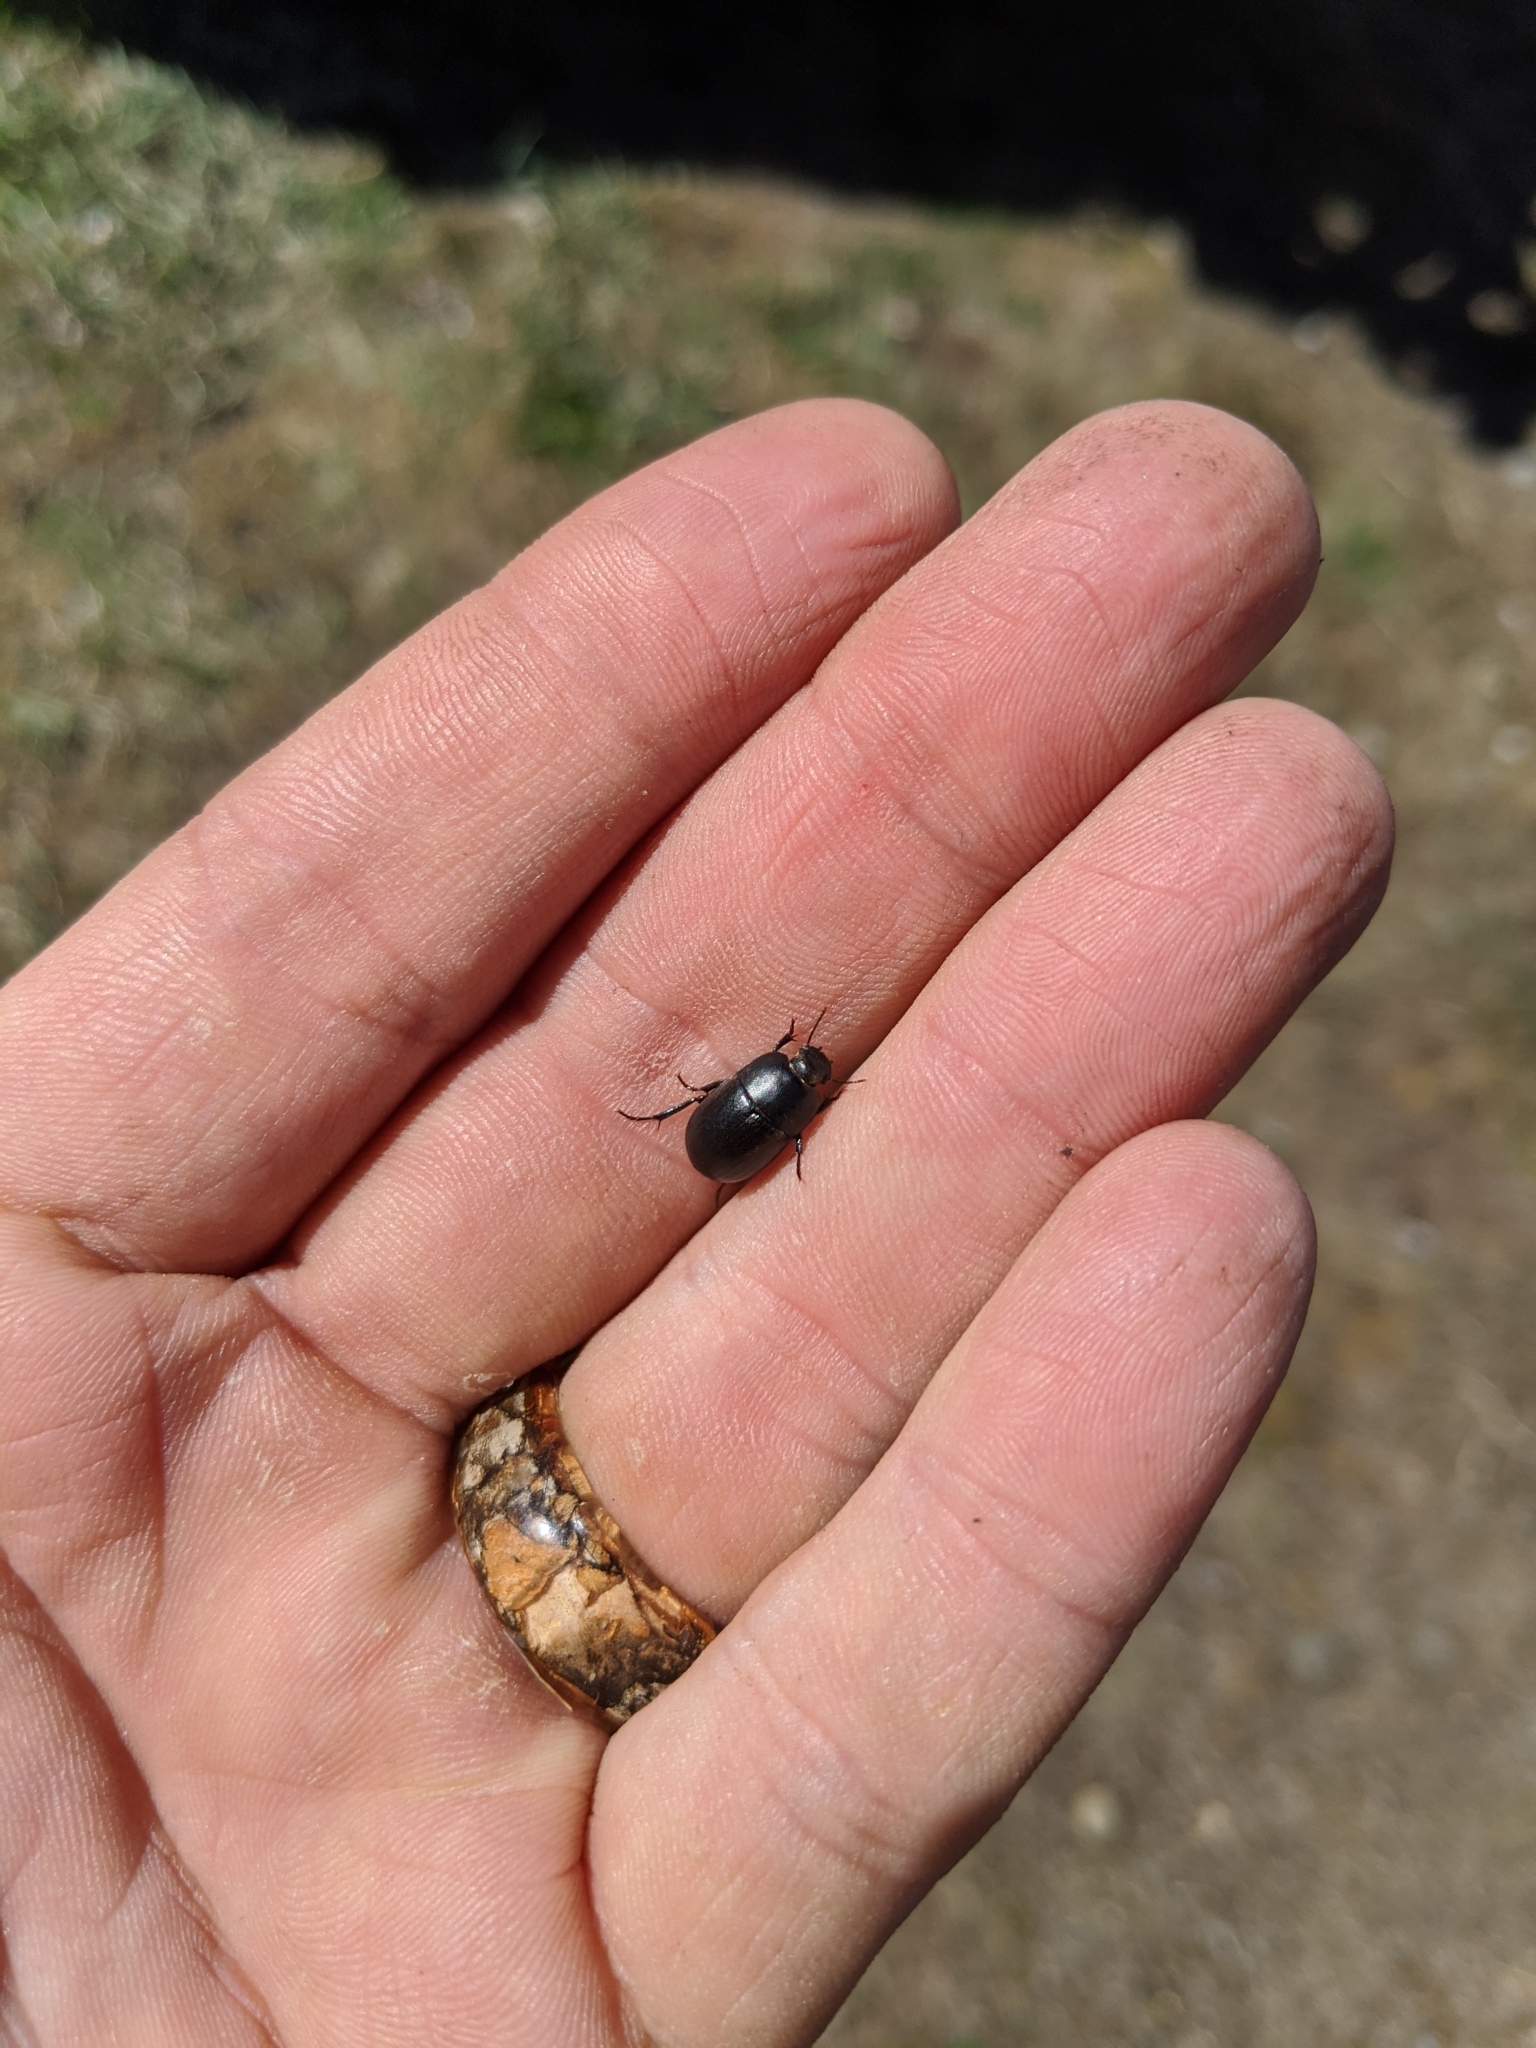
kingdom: Animalia
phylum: Arthropoda
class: Insecta
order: Coleoptera
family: Tenebrionidae
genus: Coniontis
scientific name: Coniontis
